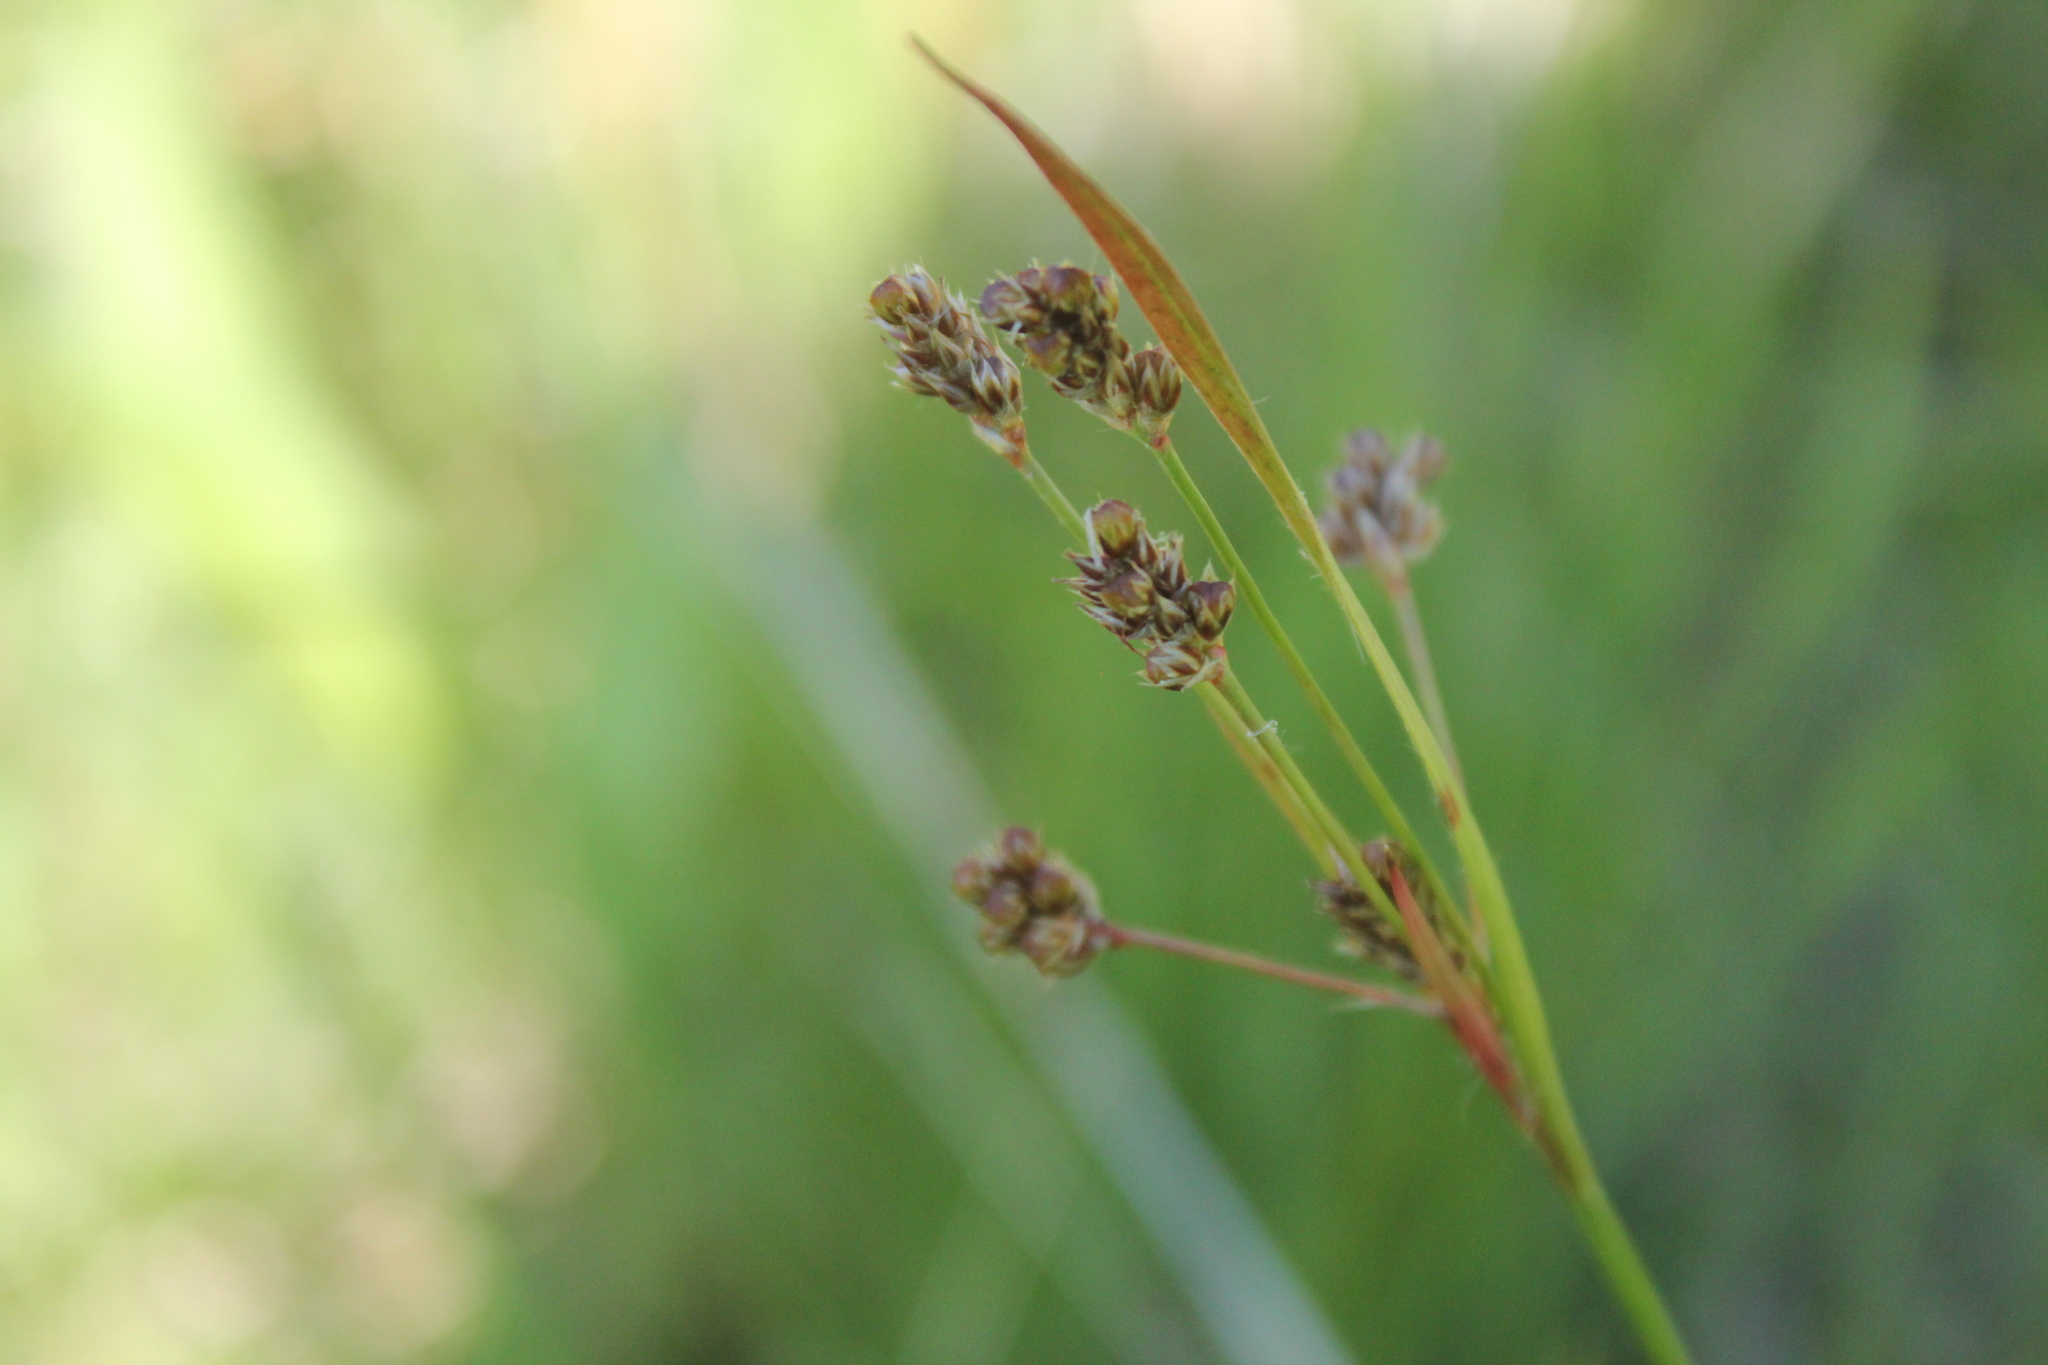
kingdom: Plantae
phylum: Tracheophyta
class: Liliopsida
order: Poales
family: Juncaceae
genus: Luzula
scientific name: Luzula multiflora
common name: Heath wood-rush
